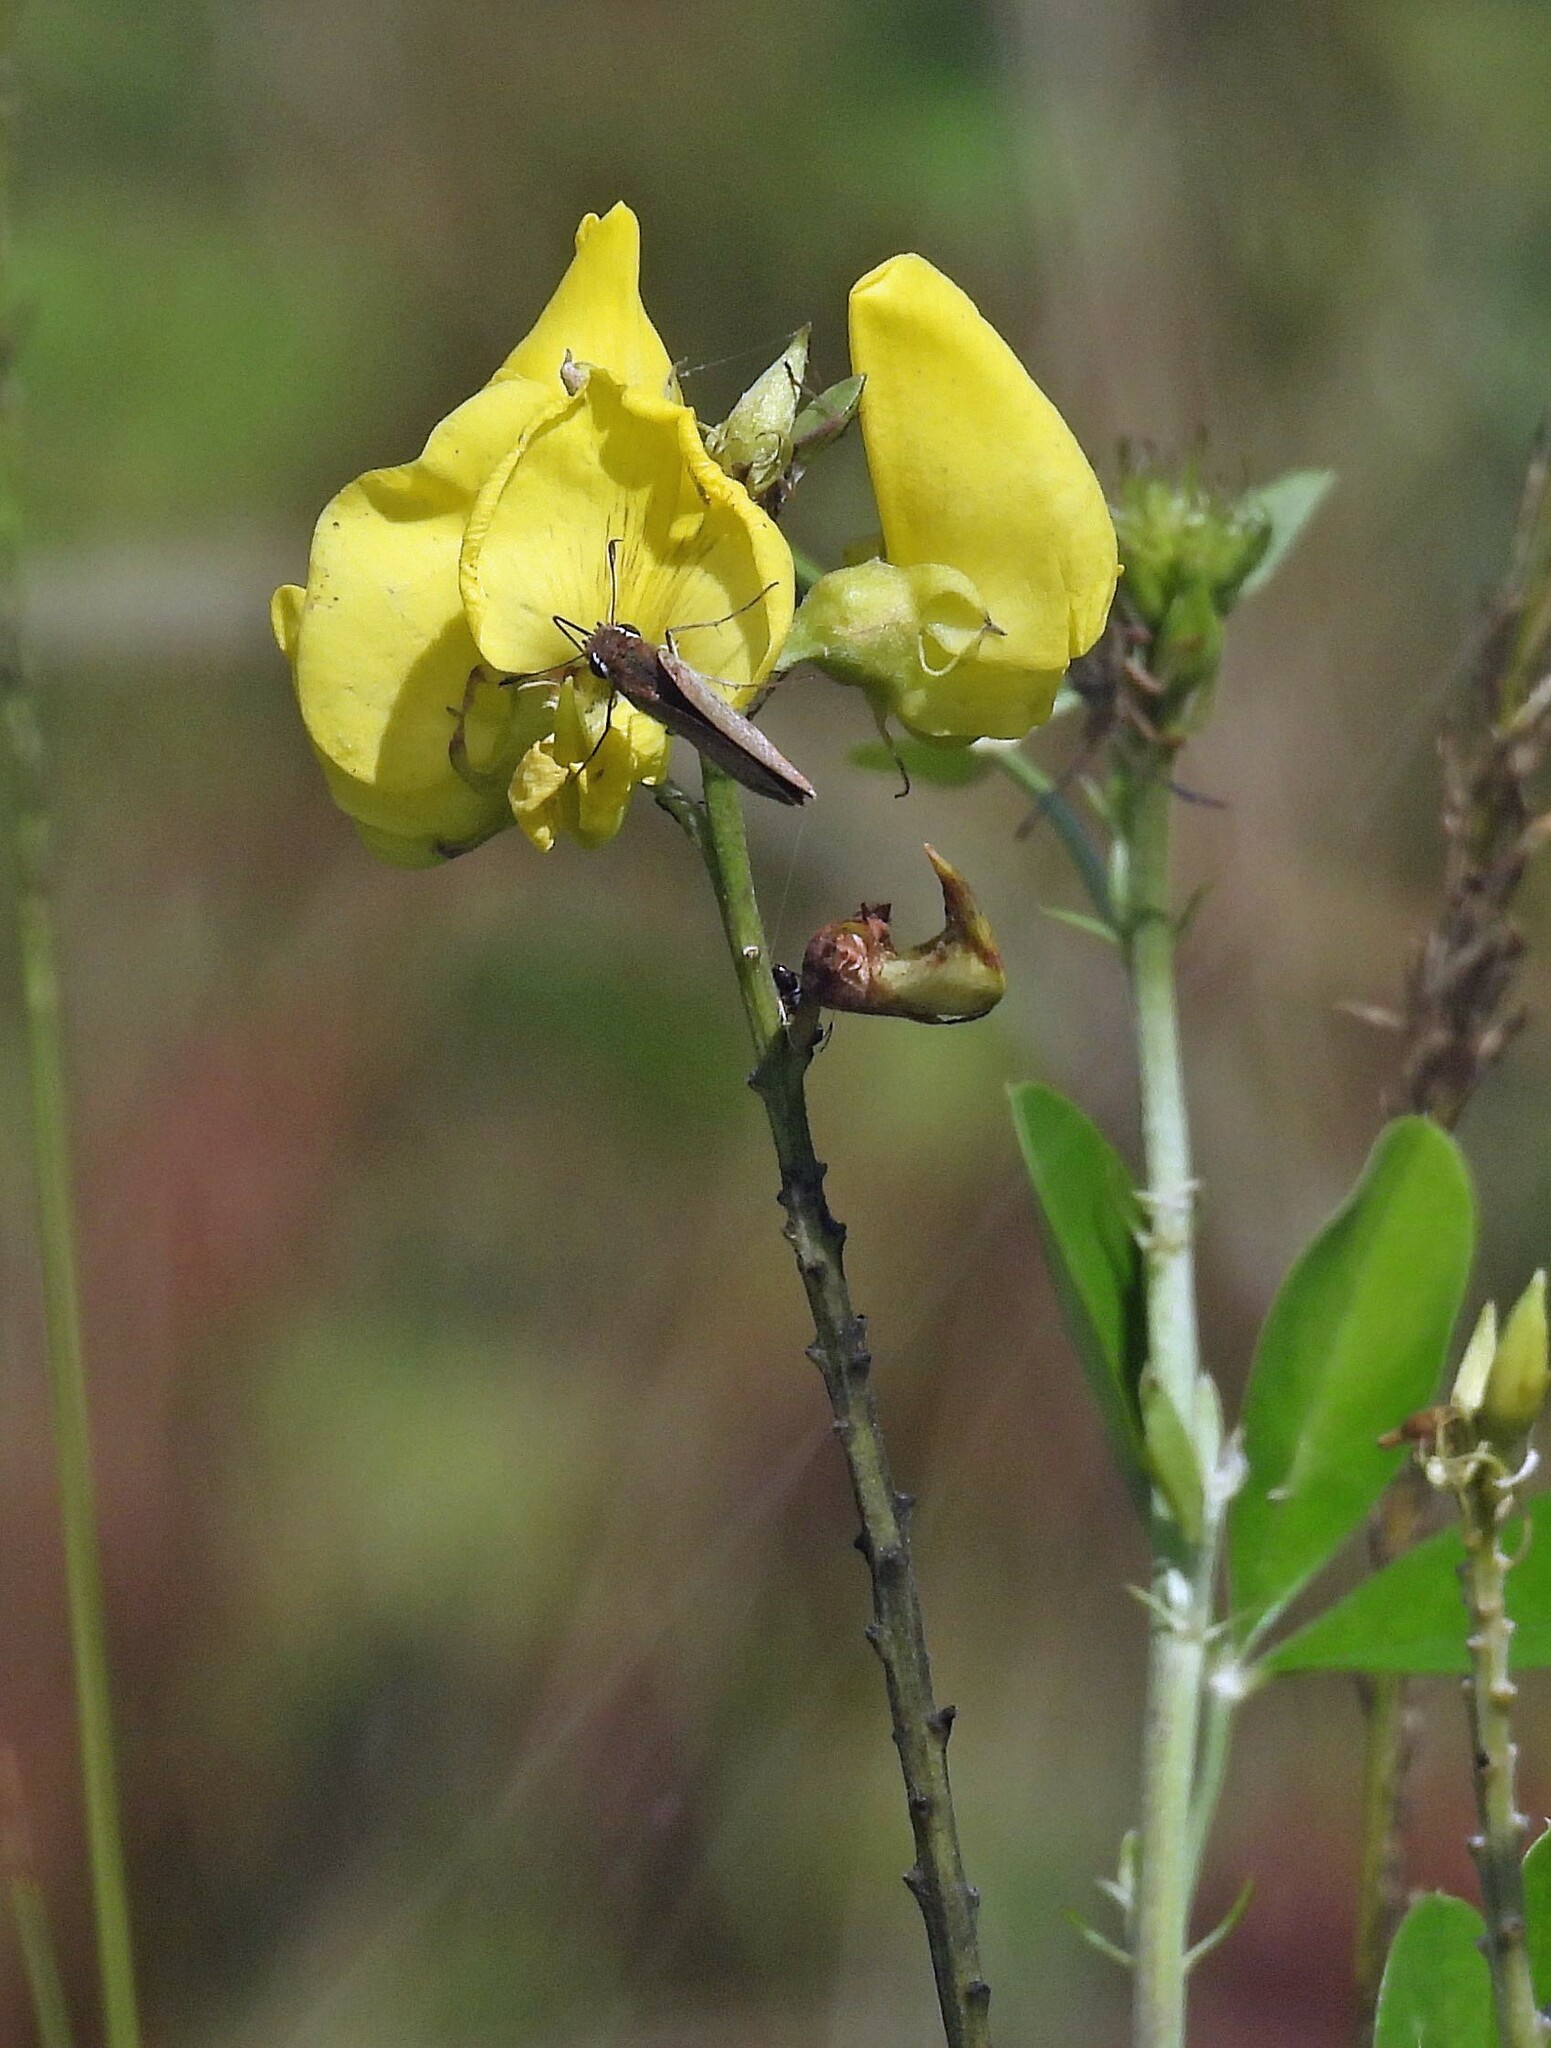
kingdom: Plantae
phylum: Tracheophyta
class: Magnoliopsida
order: Fabales
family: Fabaceae
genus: Crotalaria
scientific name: Crotalaria micans
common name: Caracas rattlebox
